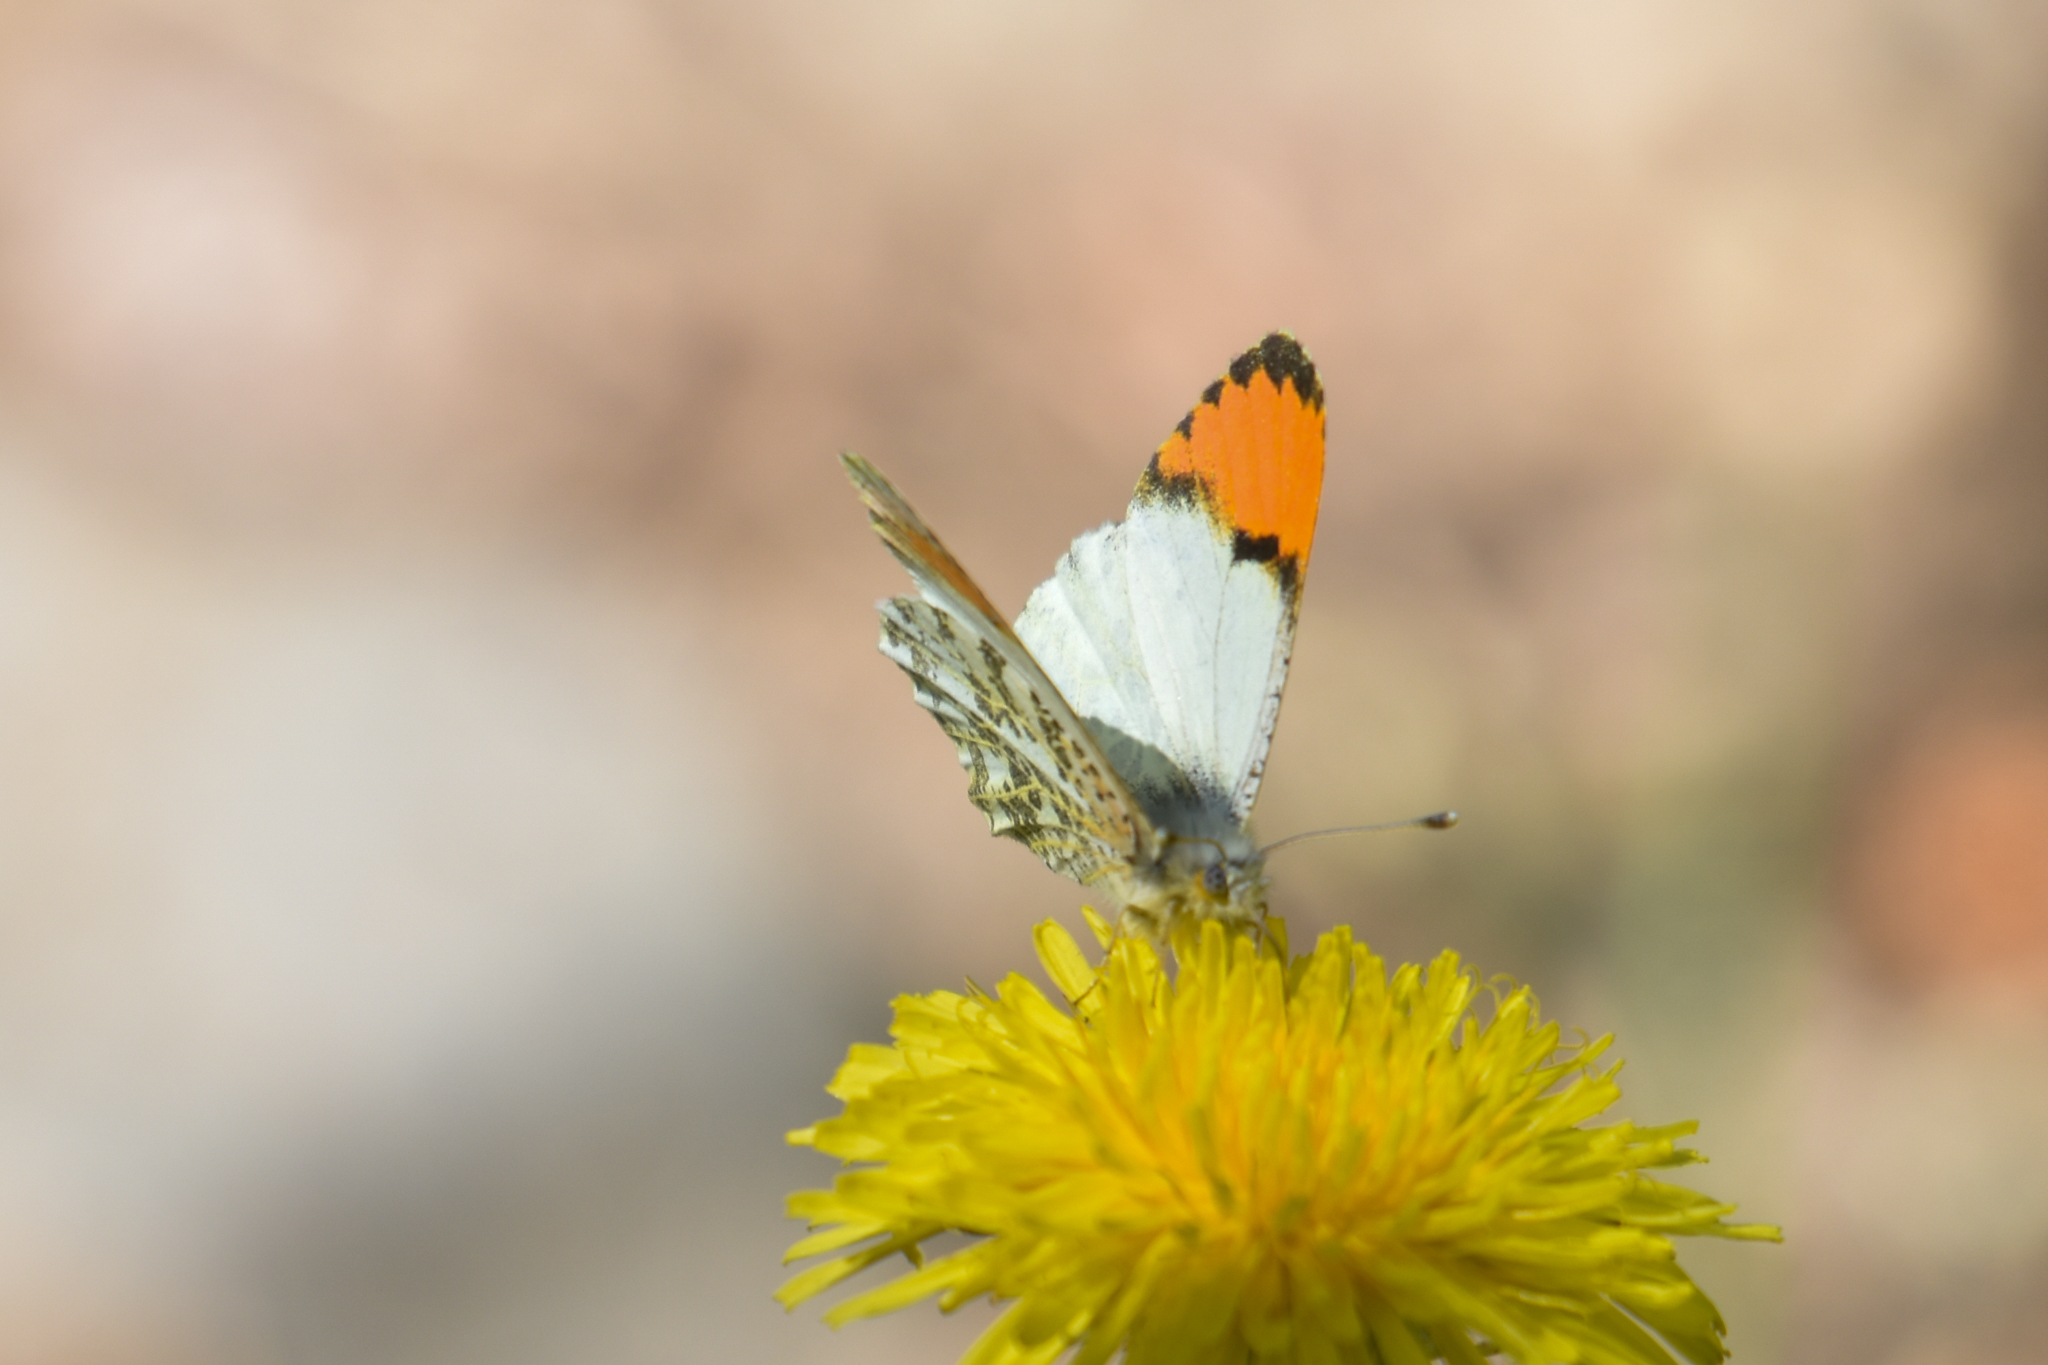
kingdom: Animalia
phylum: Arthropoda
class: Insecta
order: Lepidoptera
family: Pieridae
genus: Anthocharis
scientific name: Anthocharis julia
